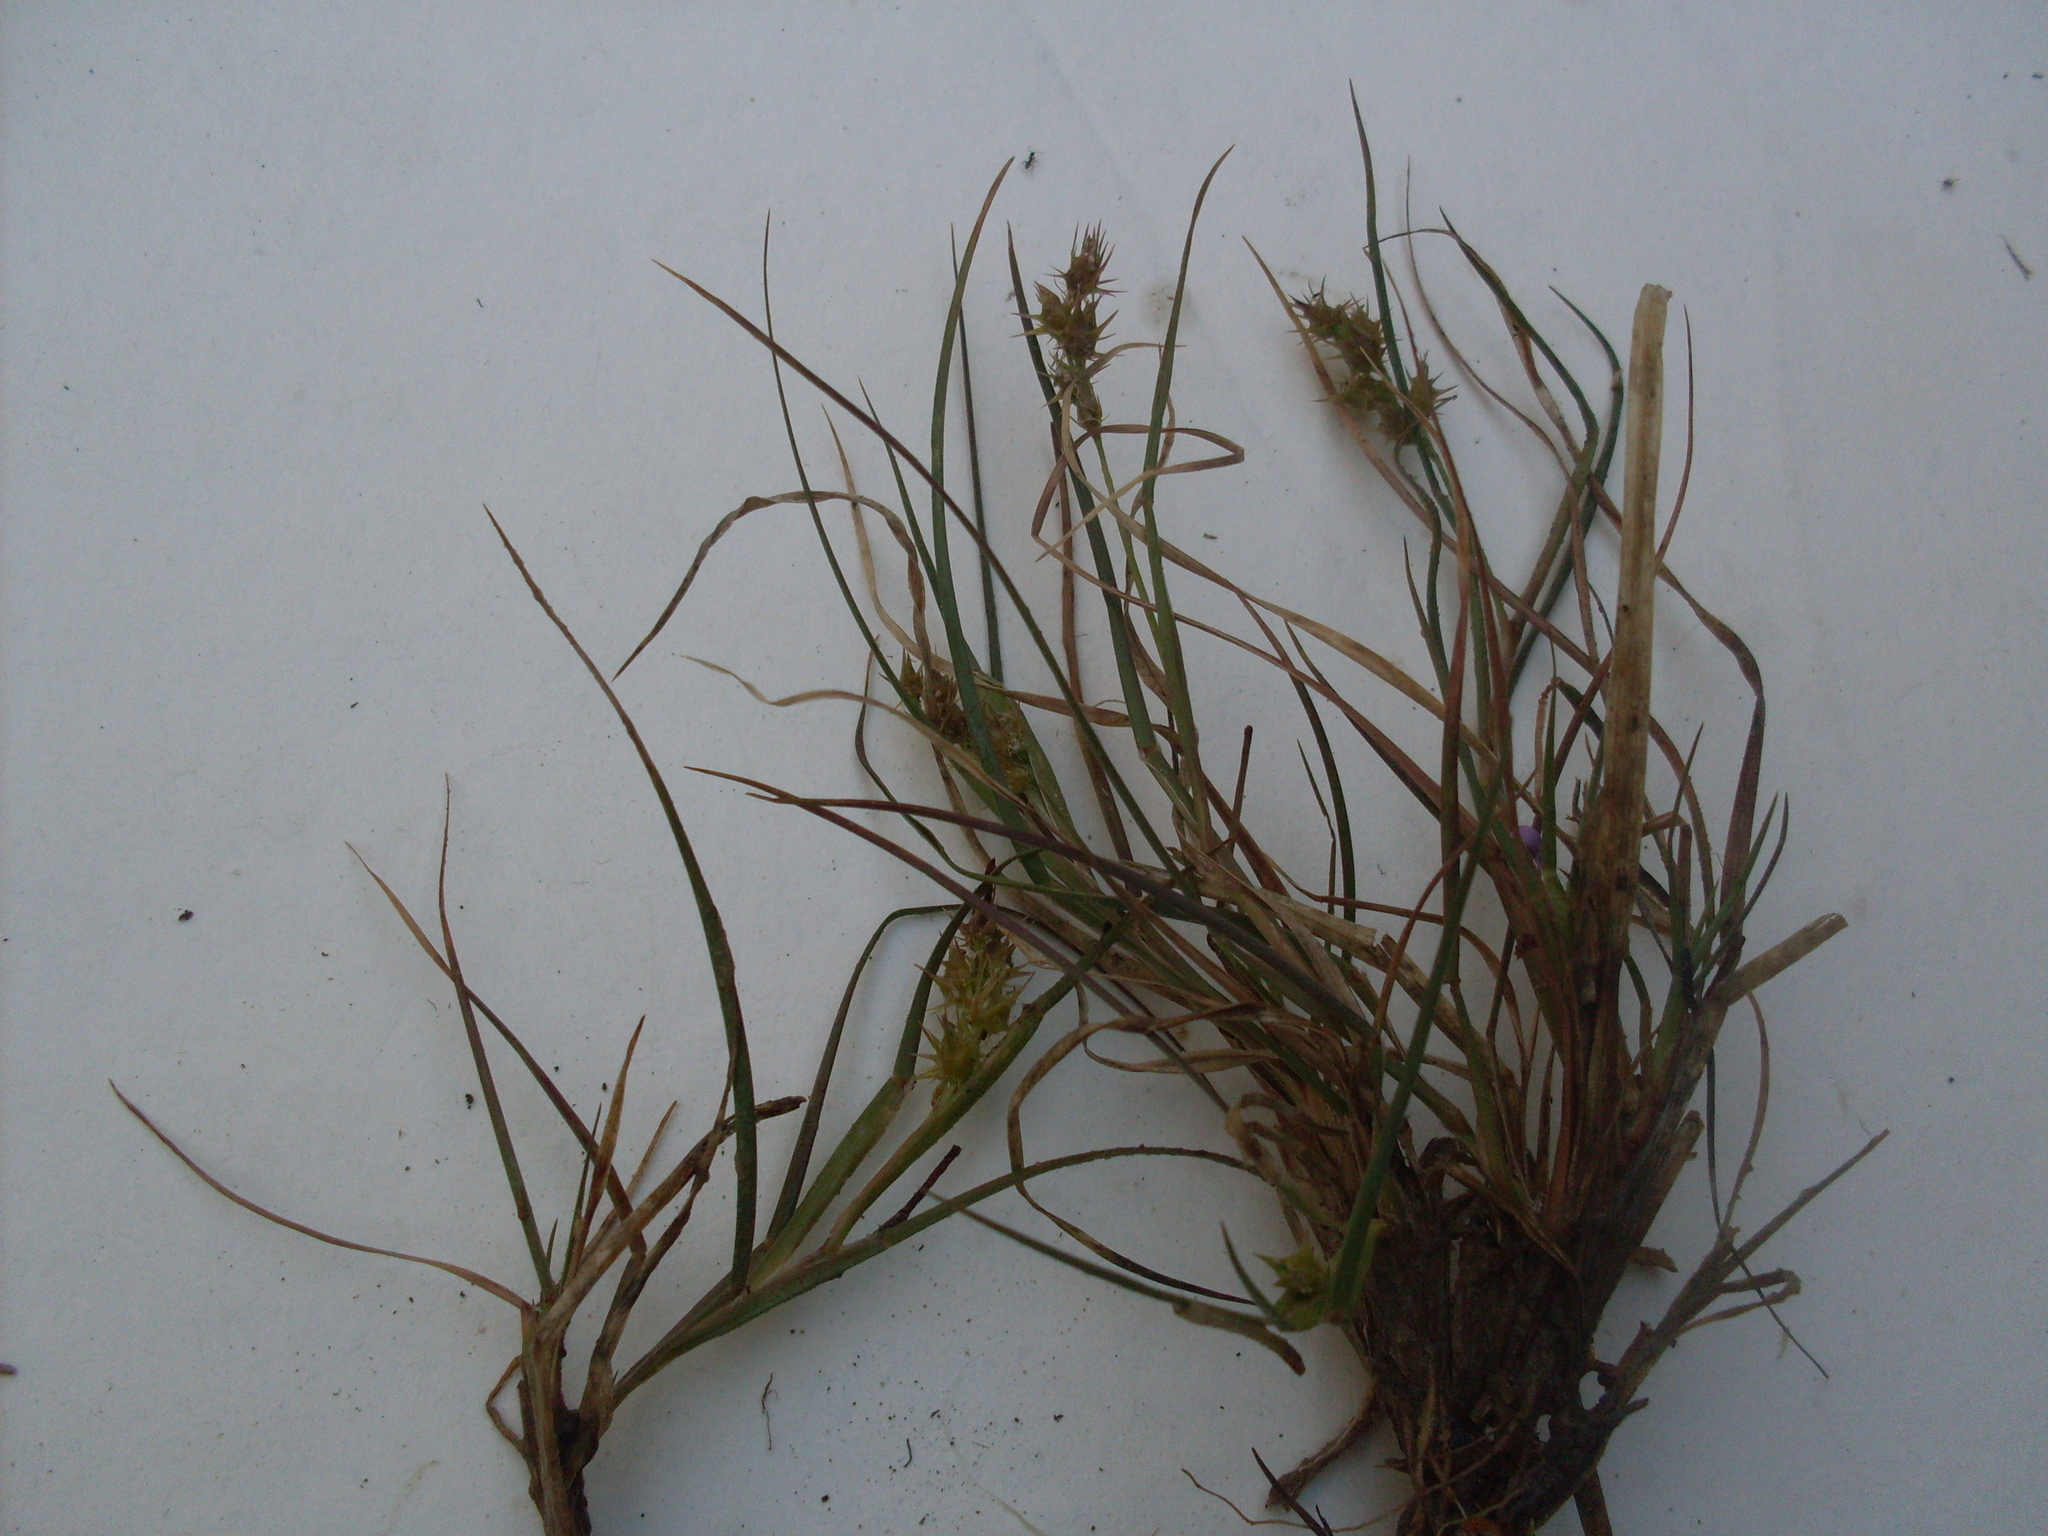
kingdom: Plantae
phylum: Tracheophyta
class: Liliopsida
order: Poales
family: Poaceae
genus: Cenchrus
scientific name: Cenchrus spinifex
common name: Coast sandbur
